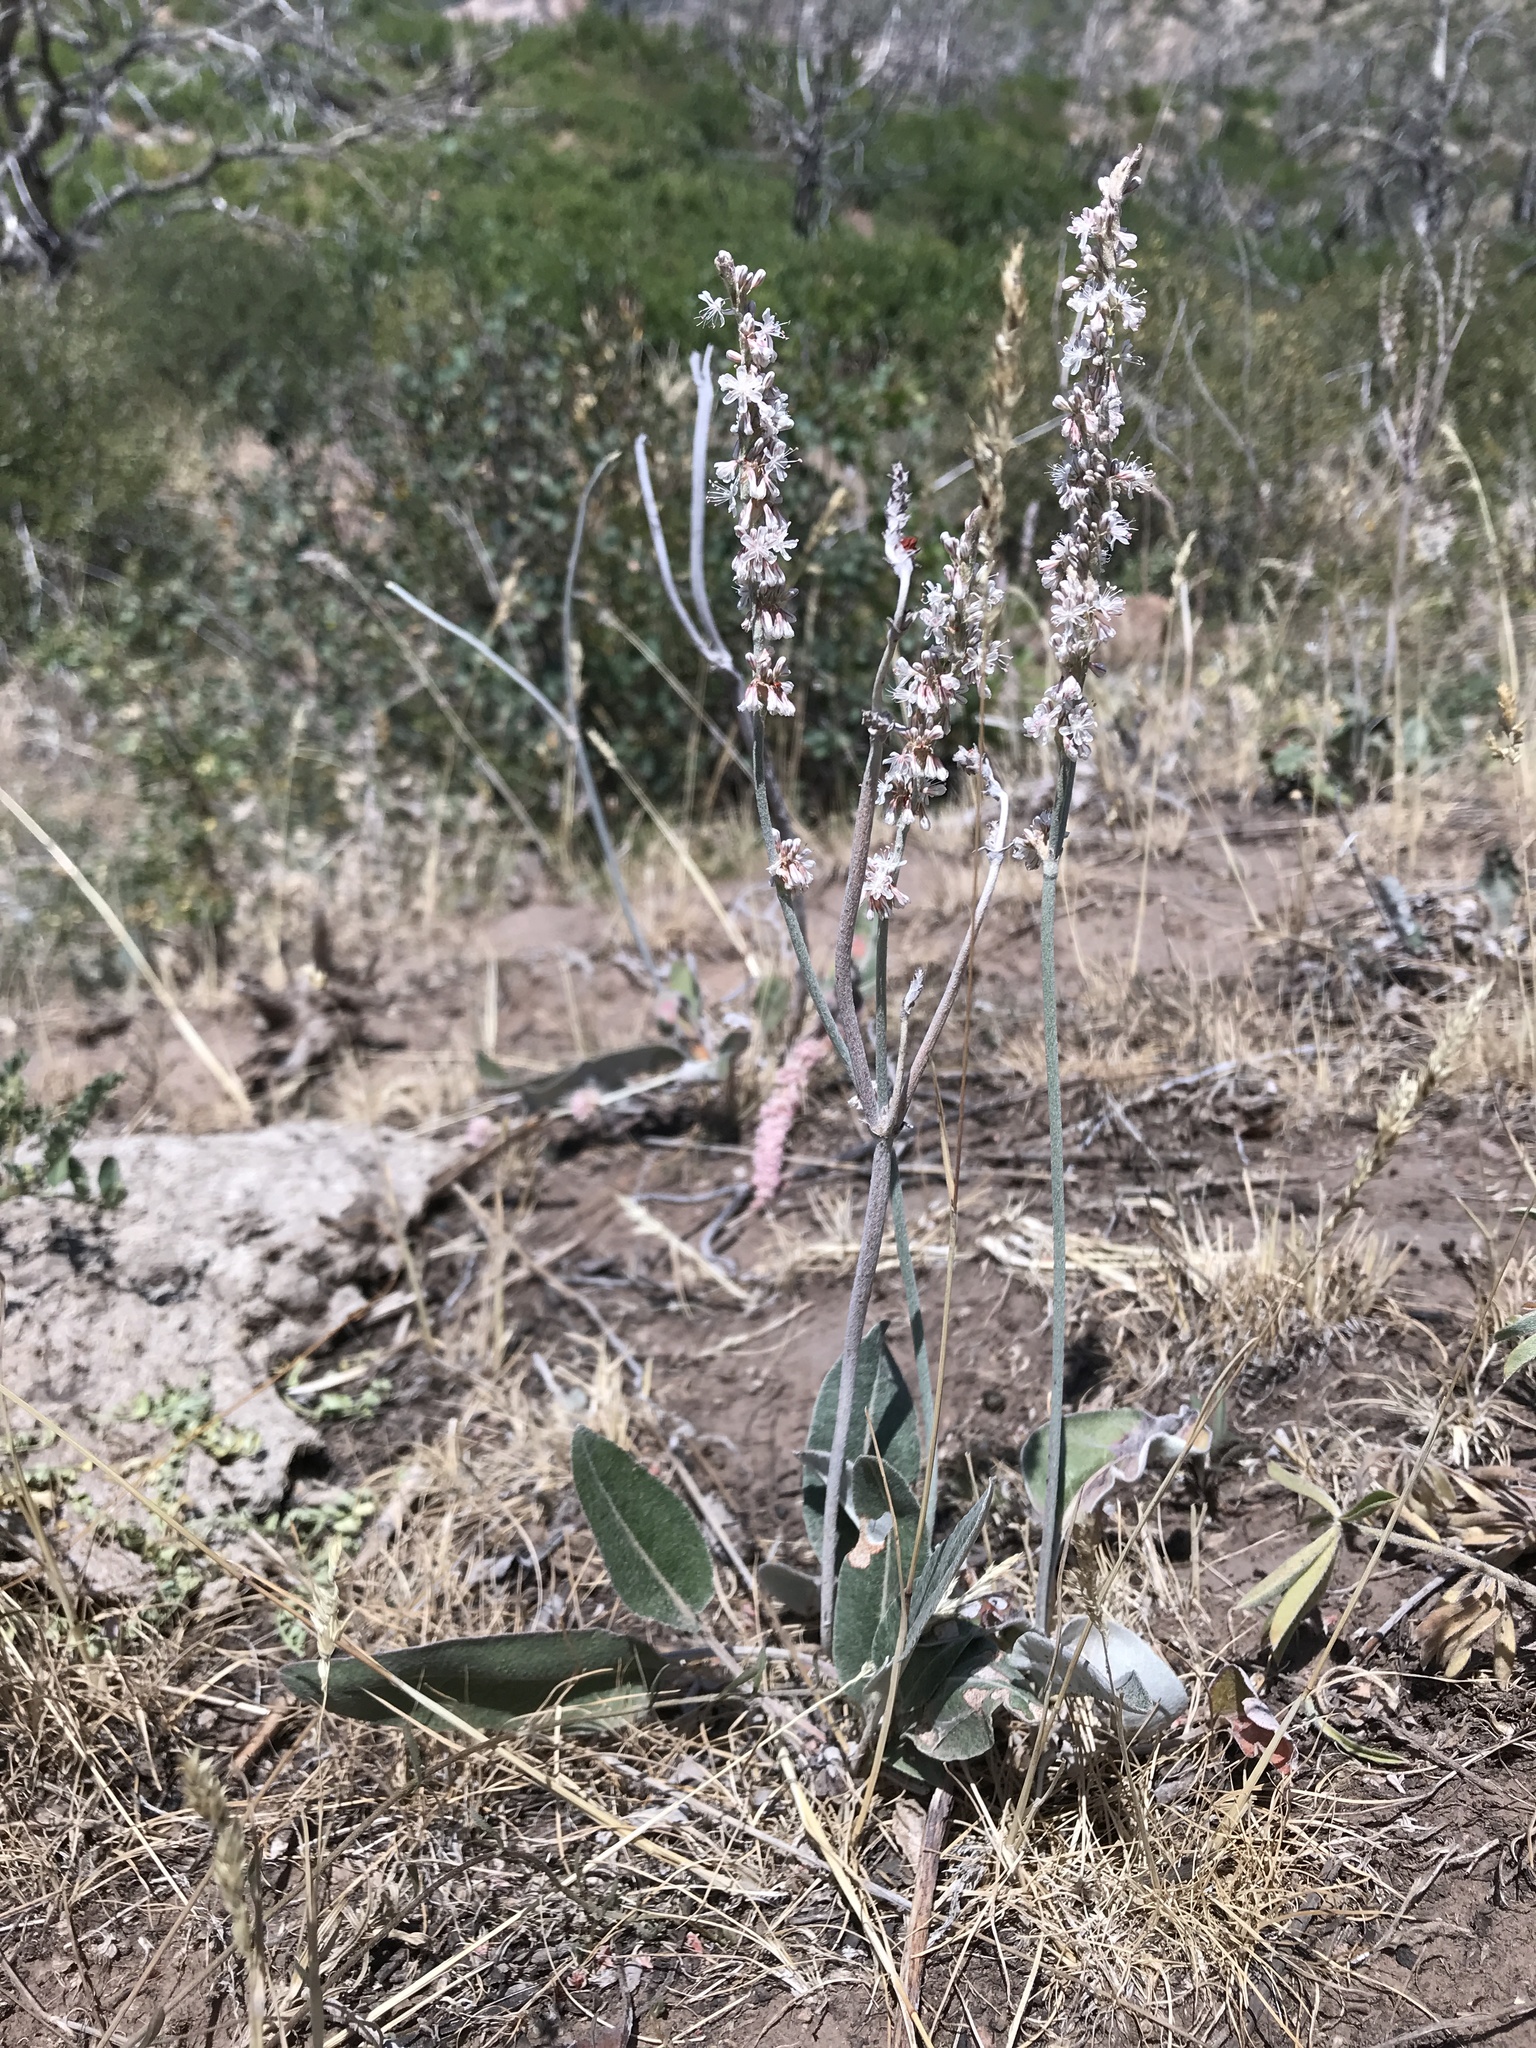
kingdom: Plantae
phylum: Tracheophyta
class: Magnoliopsida
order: Caryophyllales
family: Polygonaceae
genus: Eriogonum
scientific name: Eriogonum racemosum
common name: Redroot wild buckwheat
